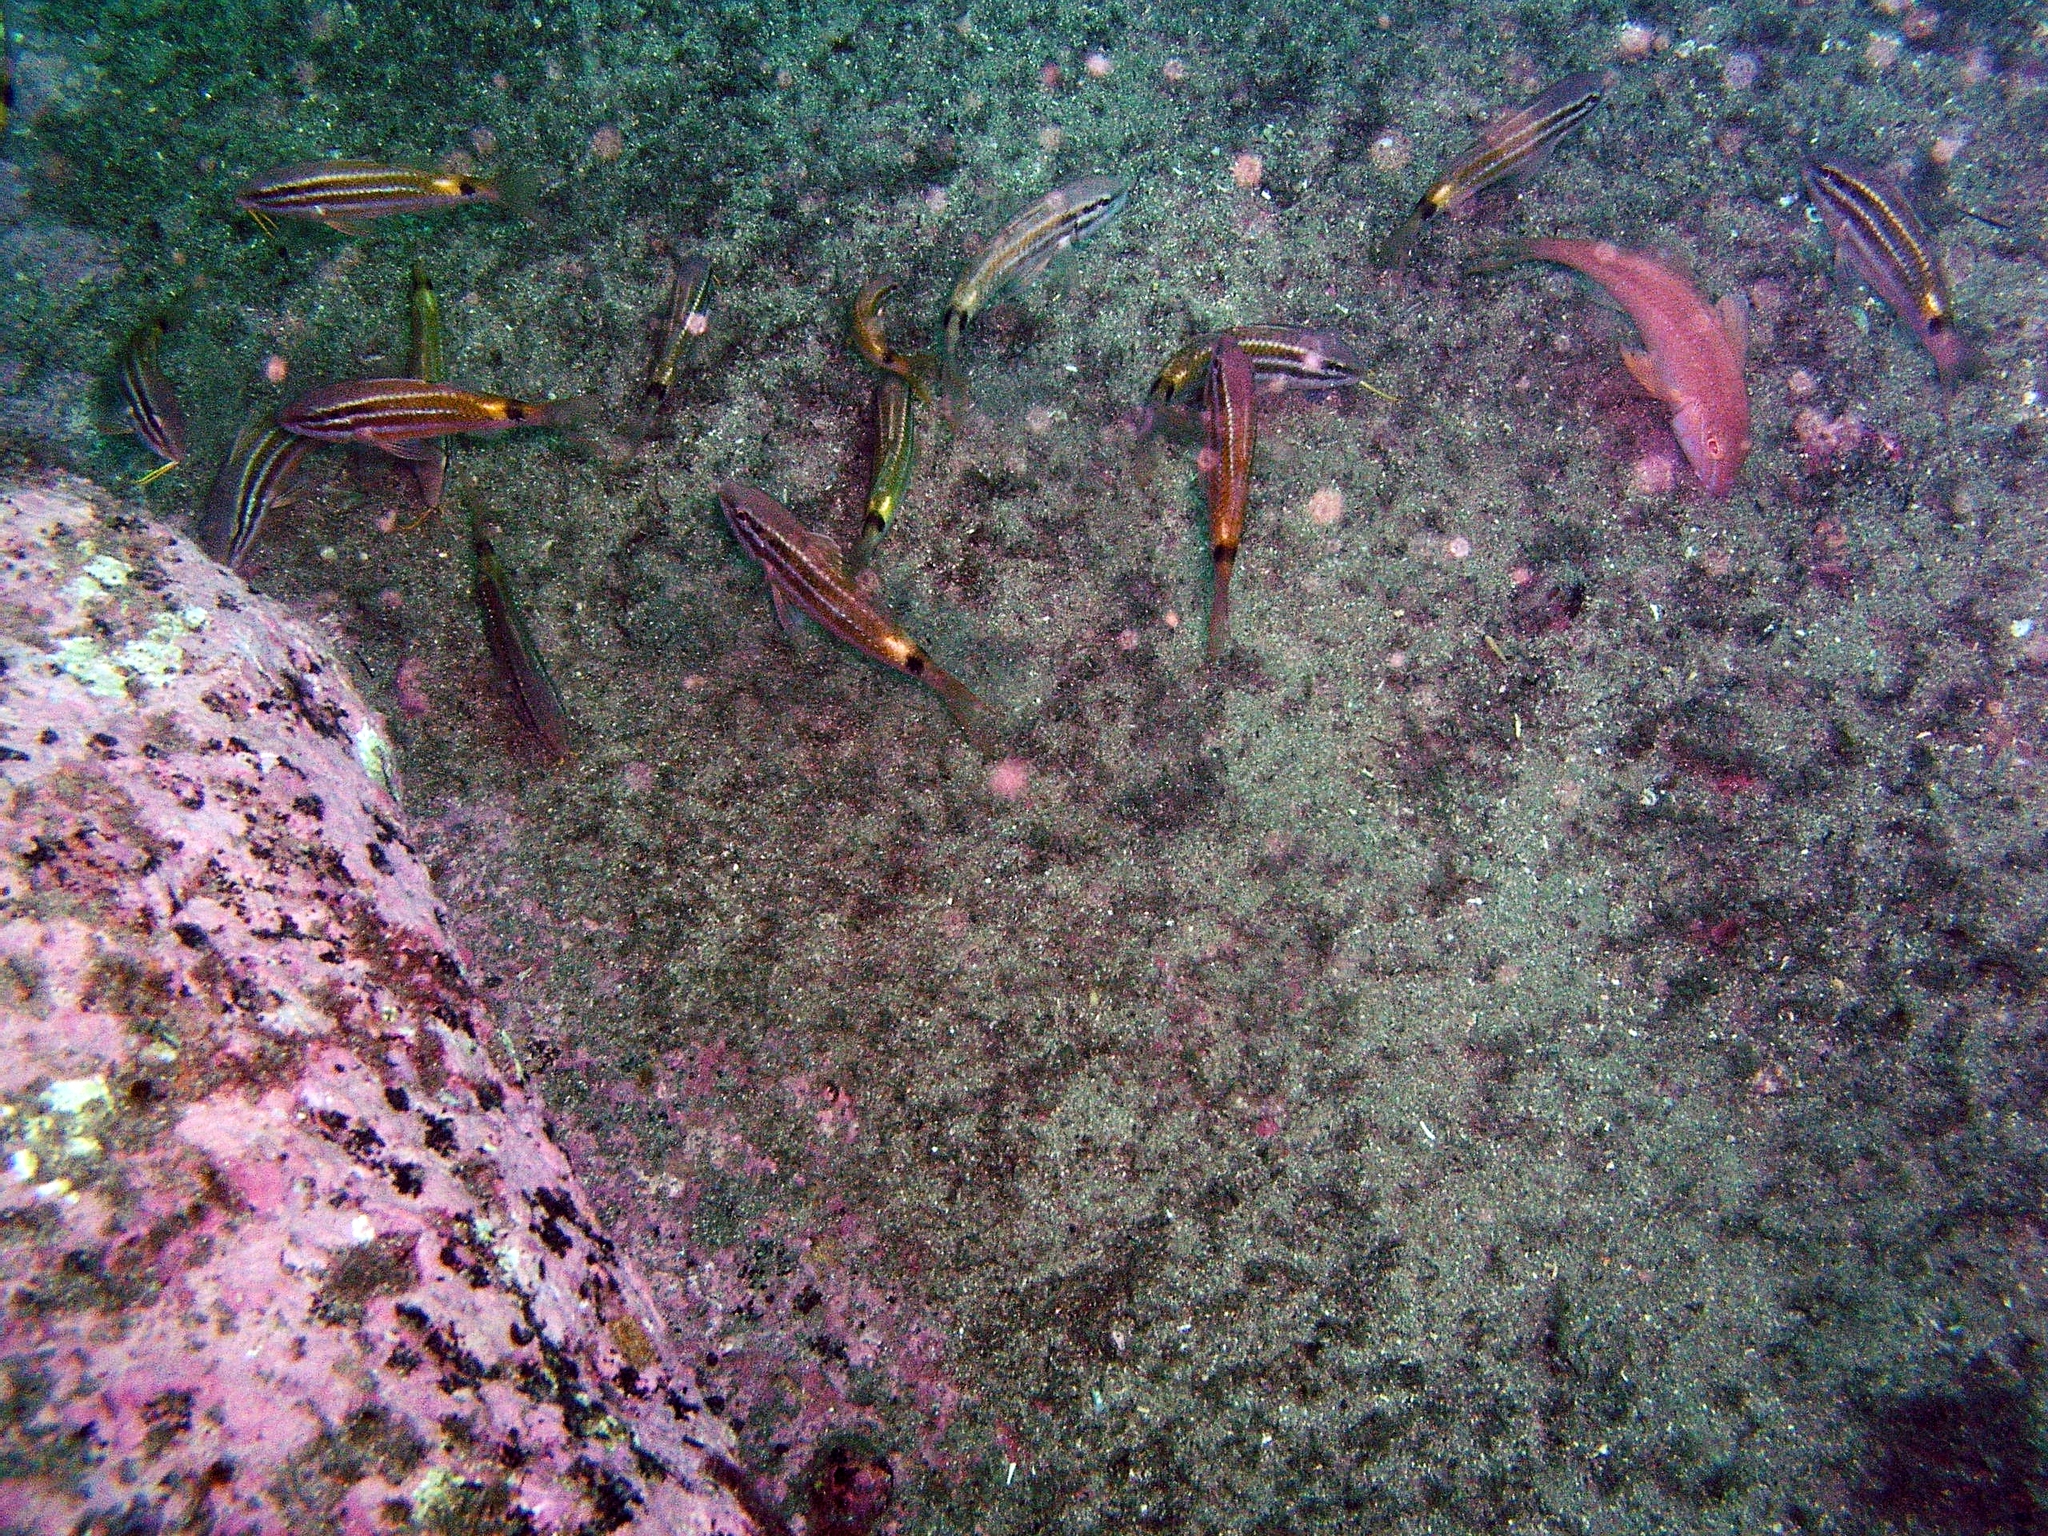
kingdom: Animalia
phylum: Chordata
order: Perciformes
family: Mullidae
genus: Parupeneus
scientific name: Parupeneus spilurus
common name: Blackspot goatfish
